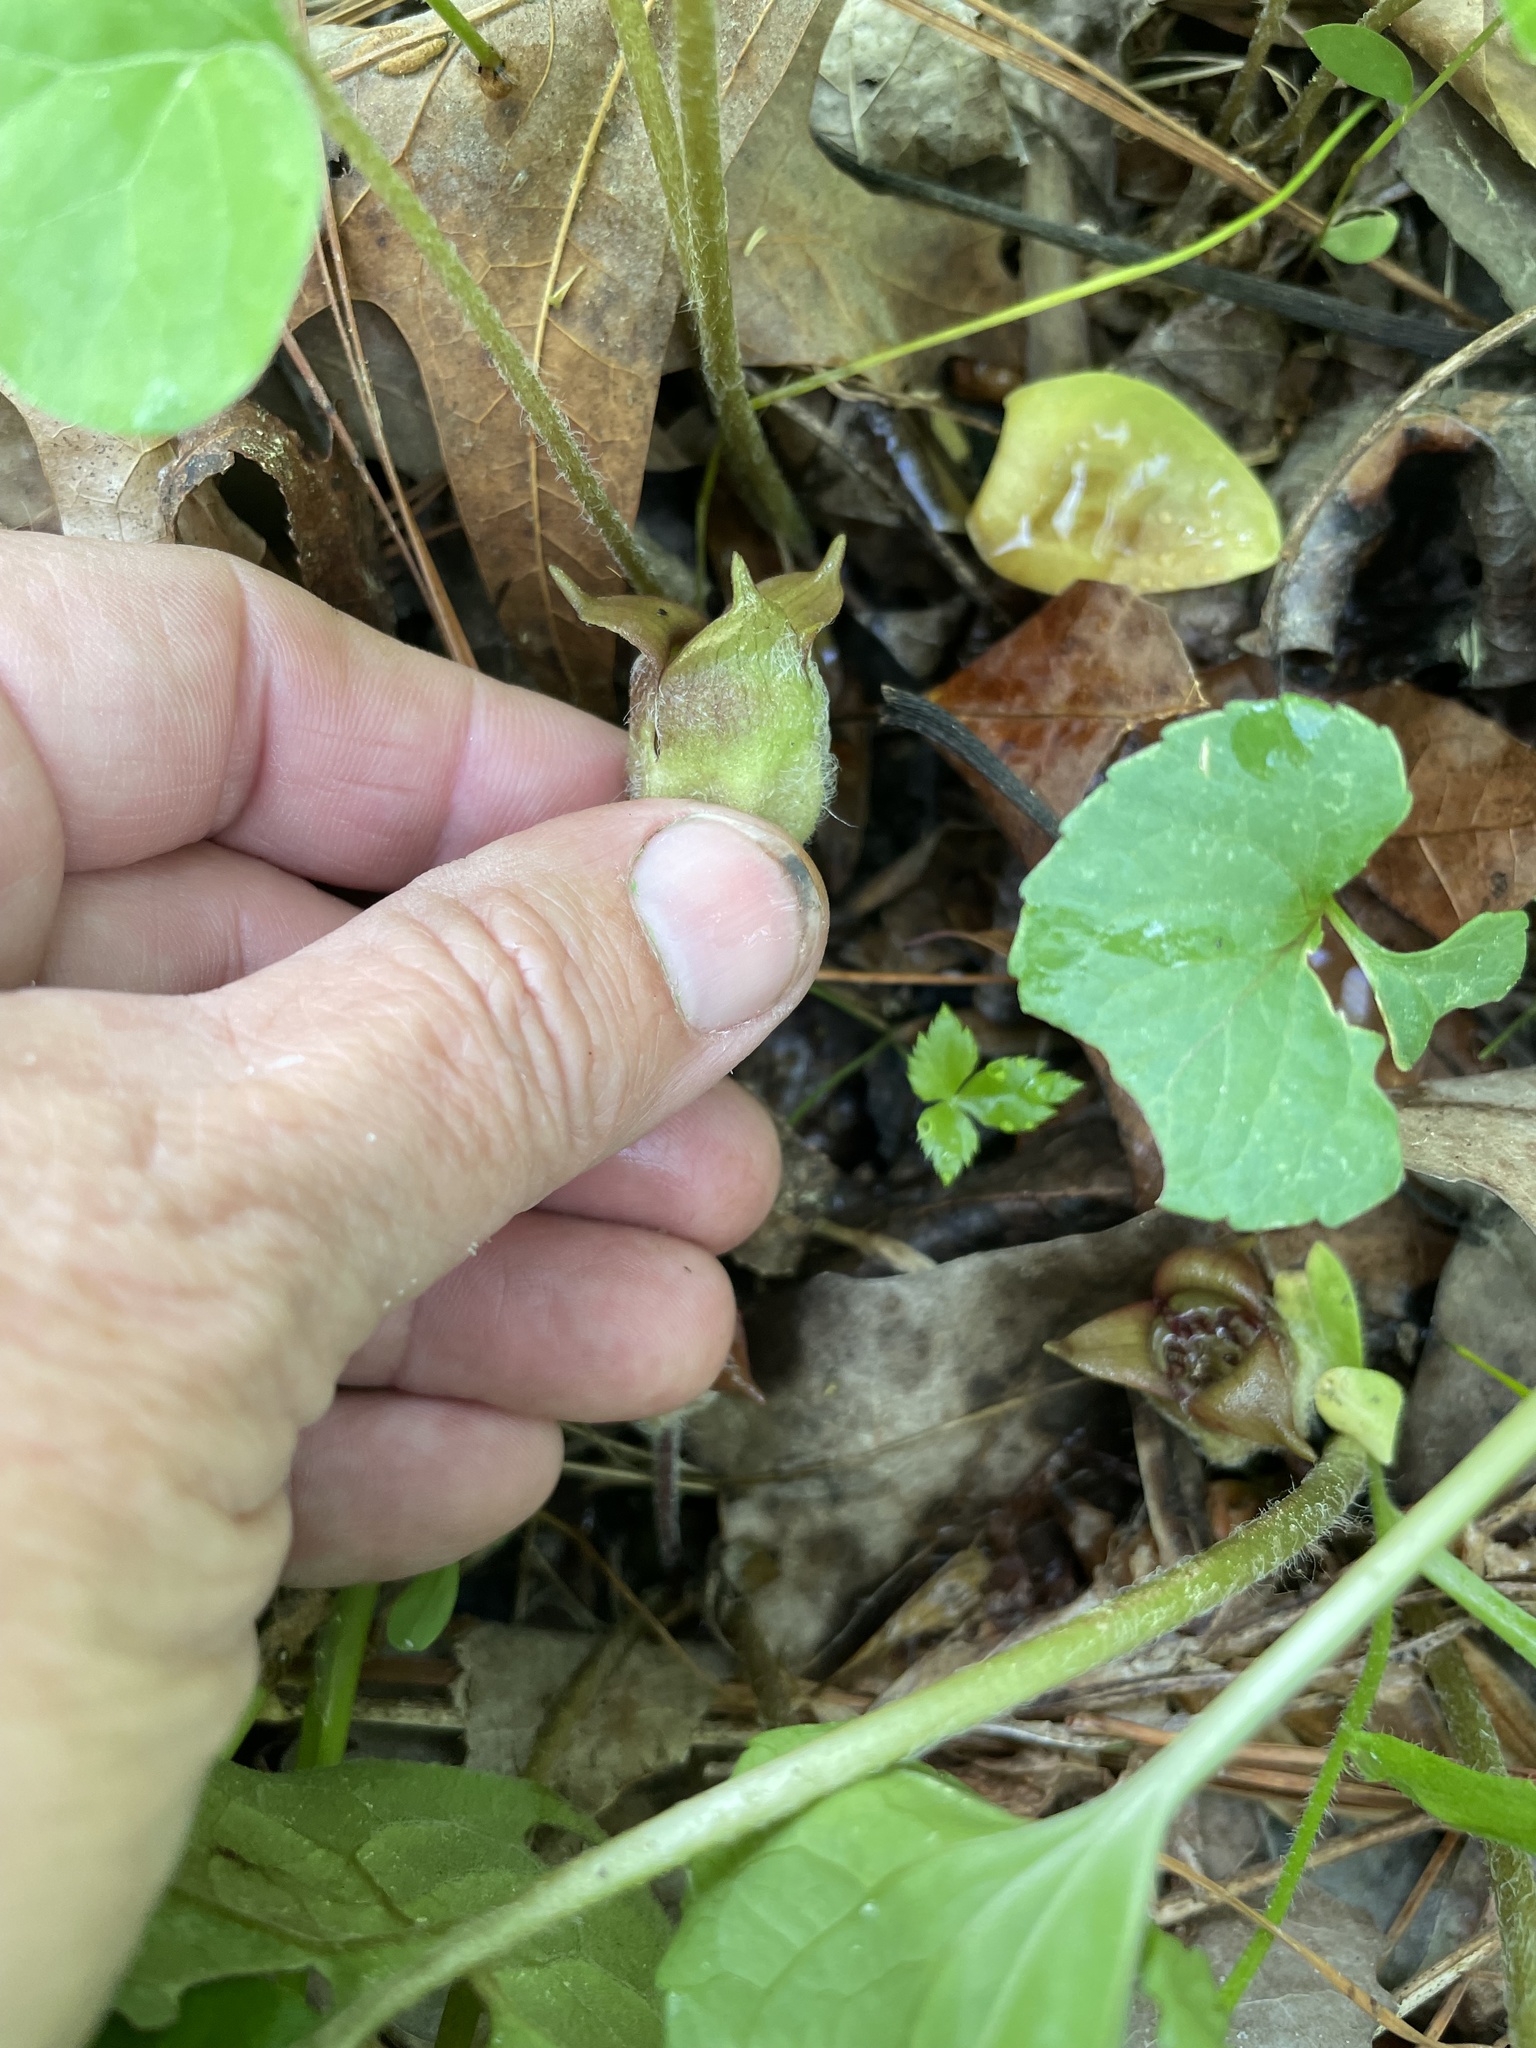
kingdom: Plantae
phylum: Tracheophyta
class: Magnoliopsida
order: Piperales
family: Aristolochiaceae
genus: Asarum
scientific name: Asarum canadense
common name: Wild ginger
